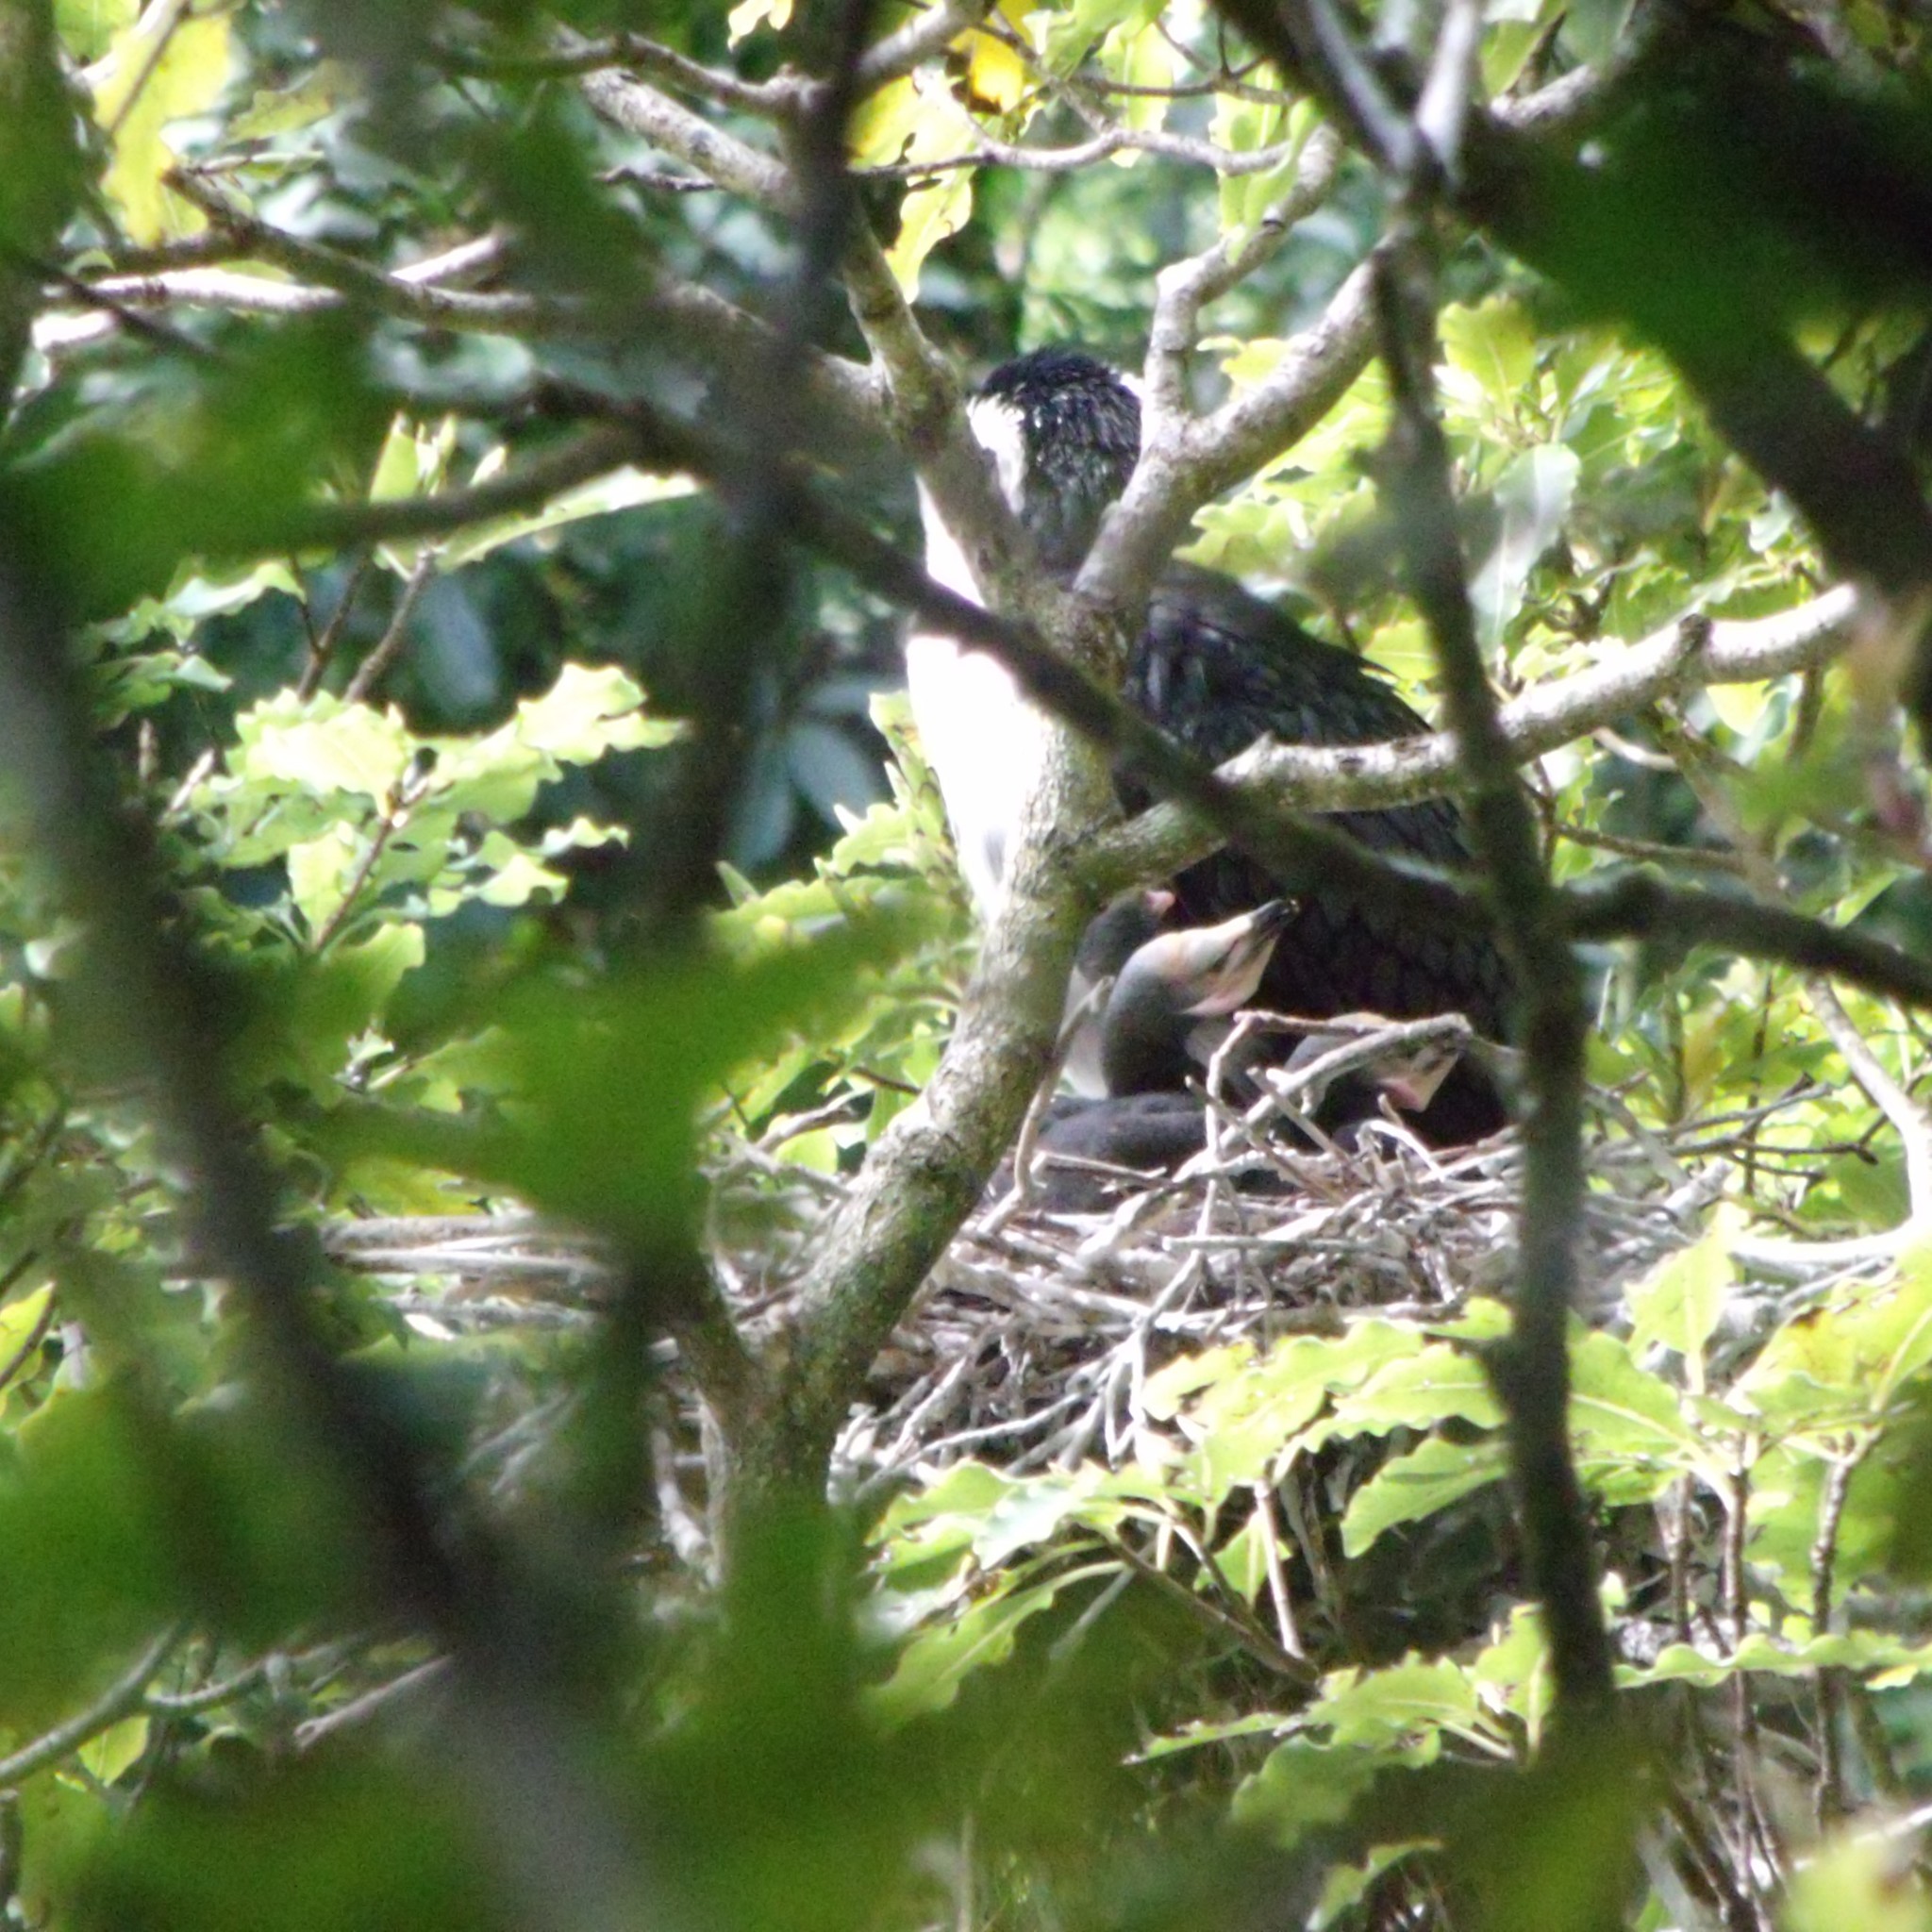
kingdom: Animalia
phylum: Chordata
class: Aves
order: Suliformes
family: Phalacrocoracidae
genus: Microcarbo
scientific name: Microcarbo melanoleucos
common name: Little pied cormorant
